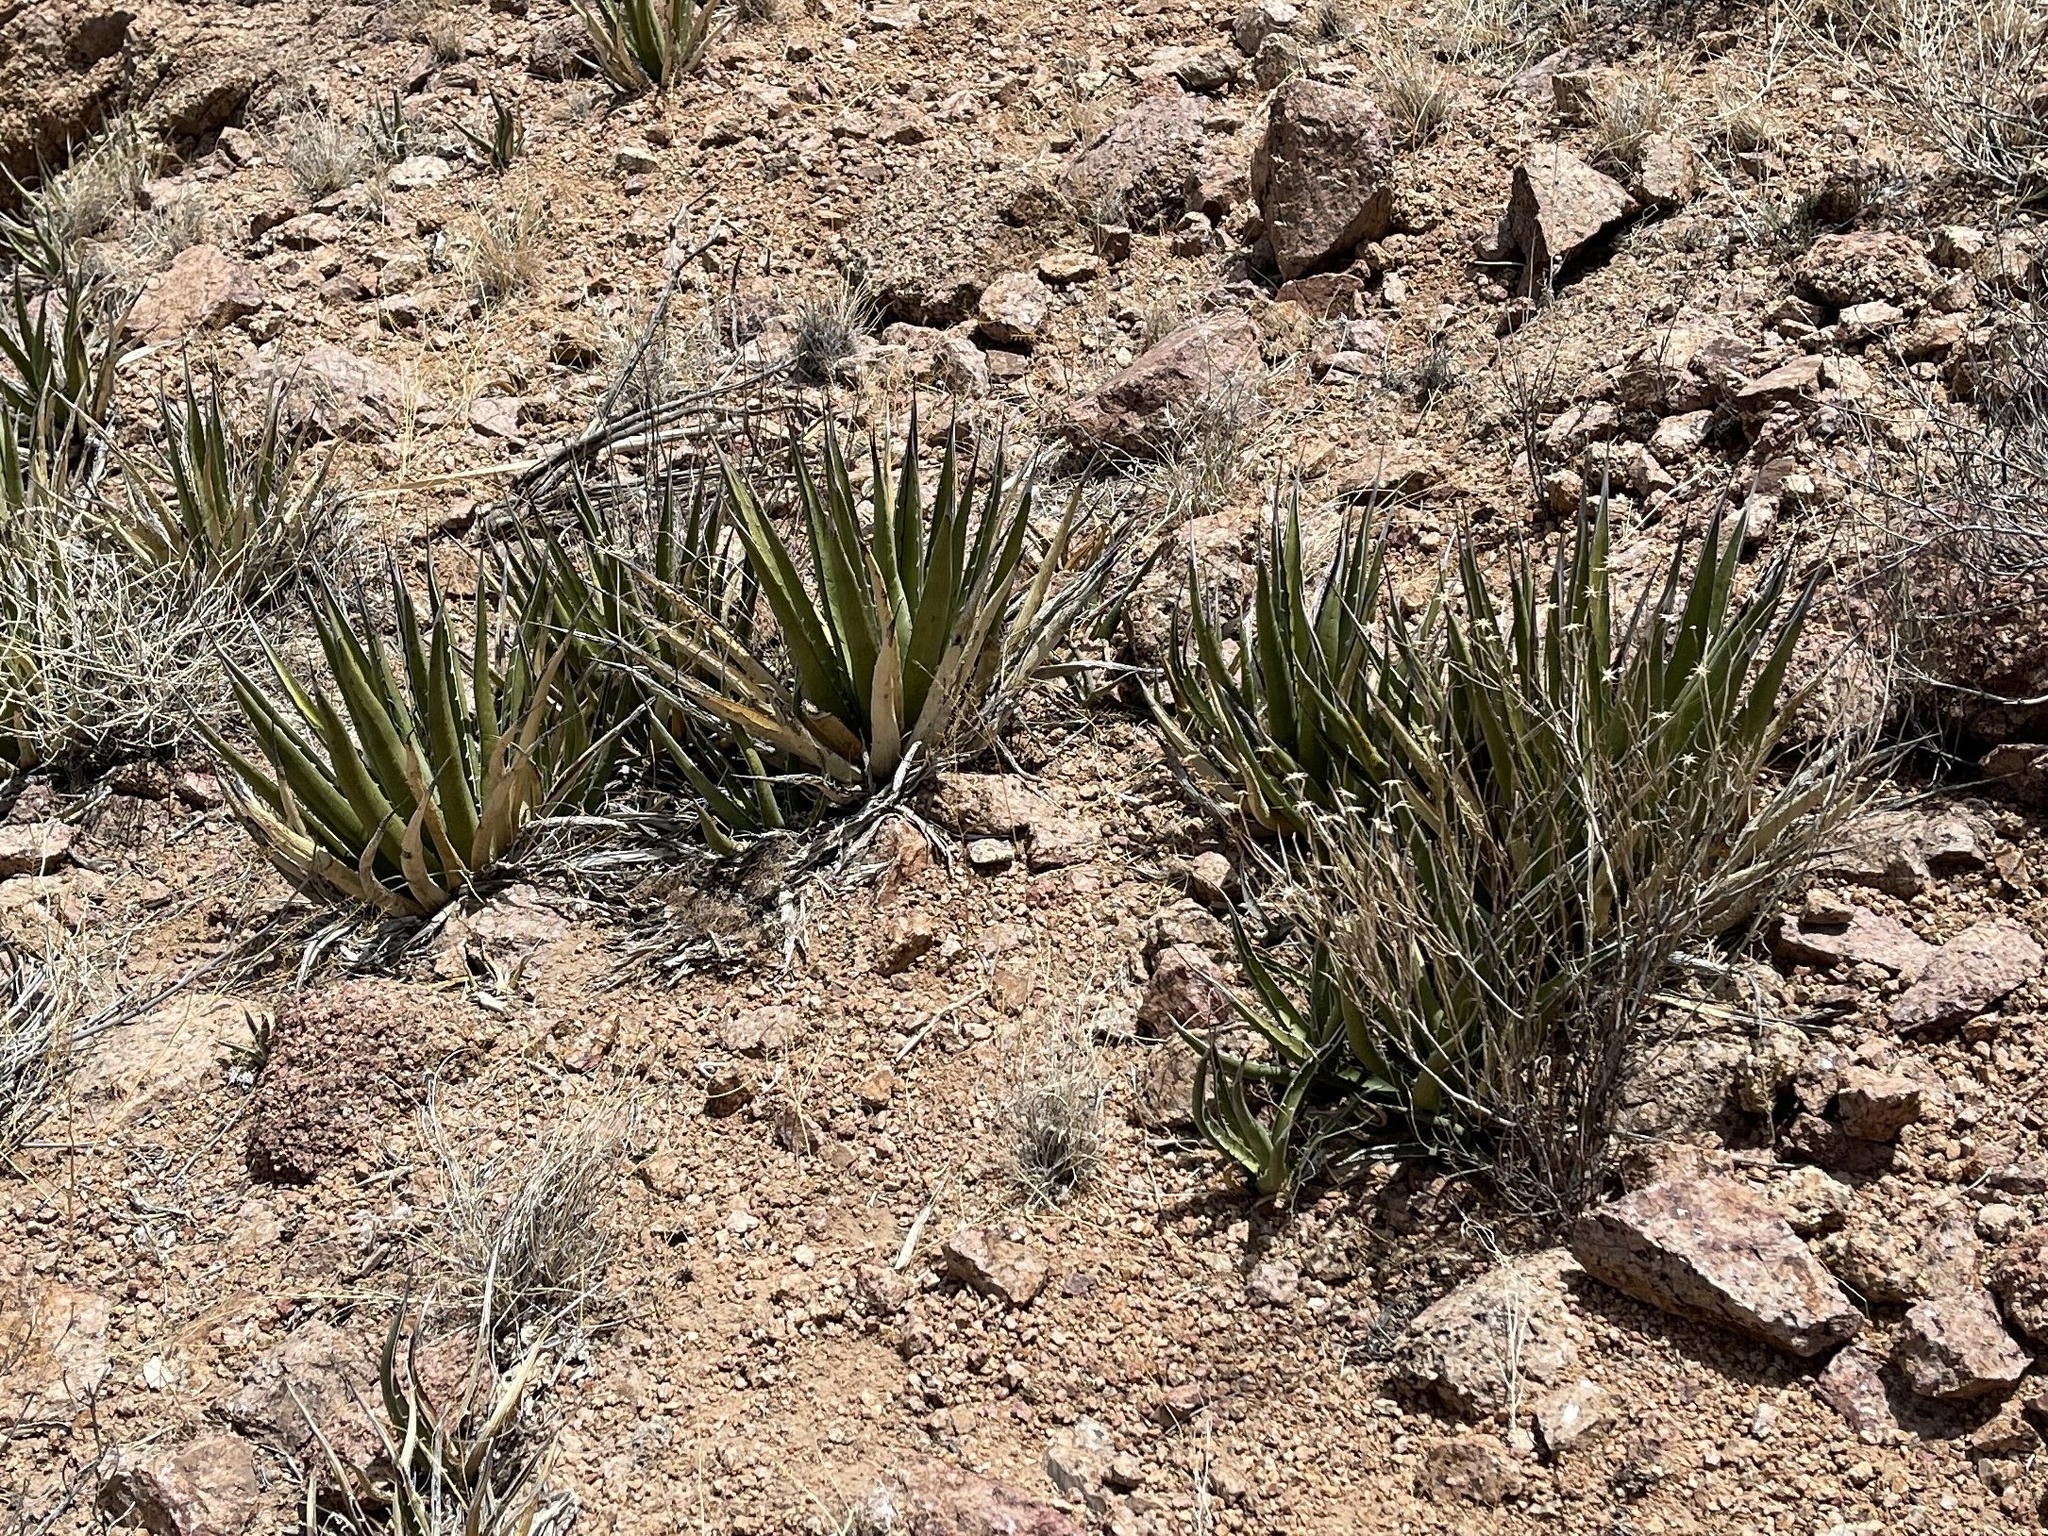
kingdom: Plantae
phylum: Tracheophyta
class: Liliopsida
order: Asparagales
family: Asparagaceae
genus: Agave
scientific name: Agave lechuguilla
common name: Lecheguilla agave
